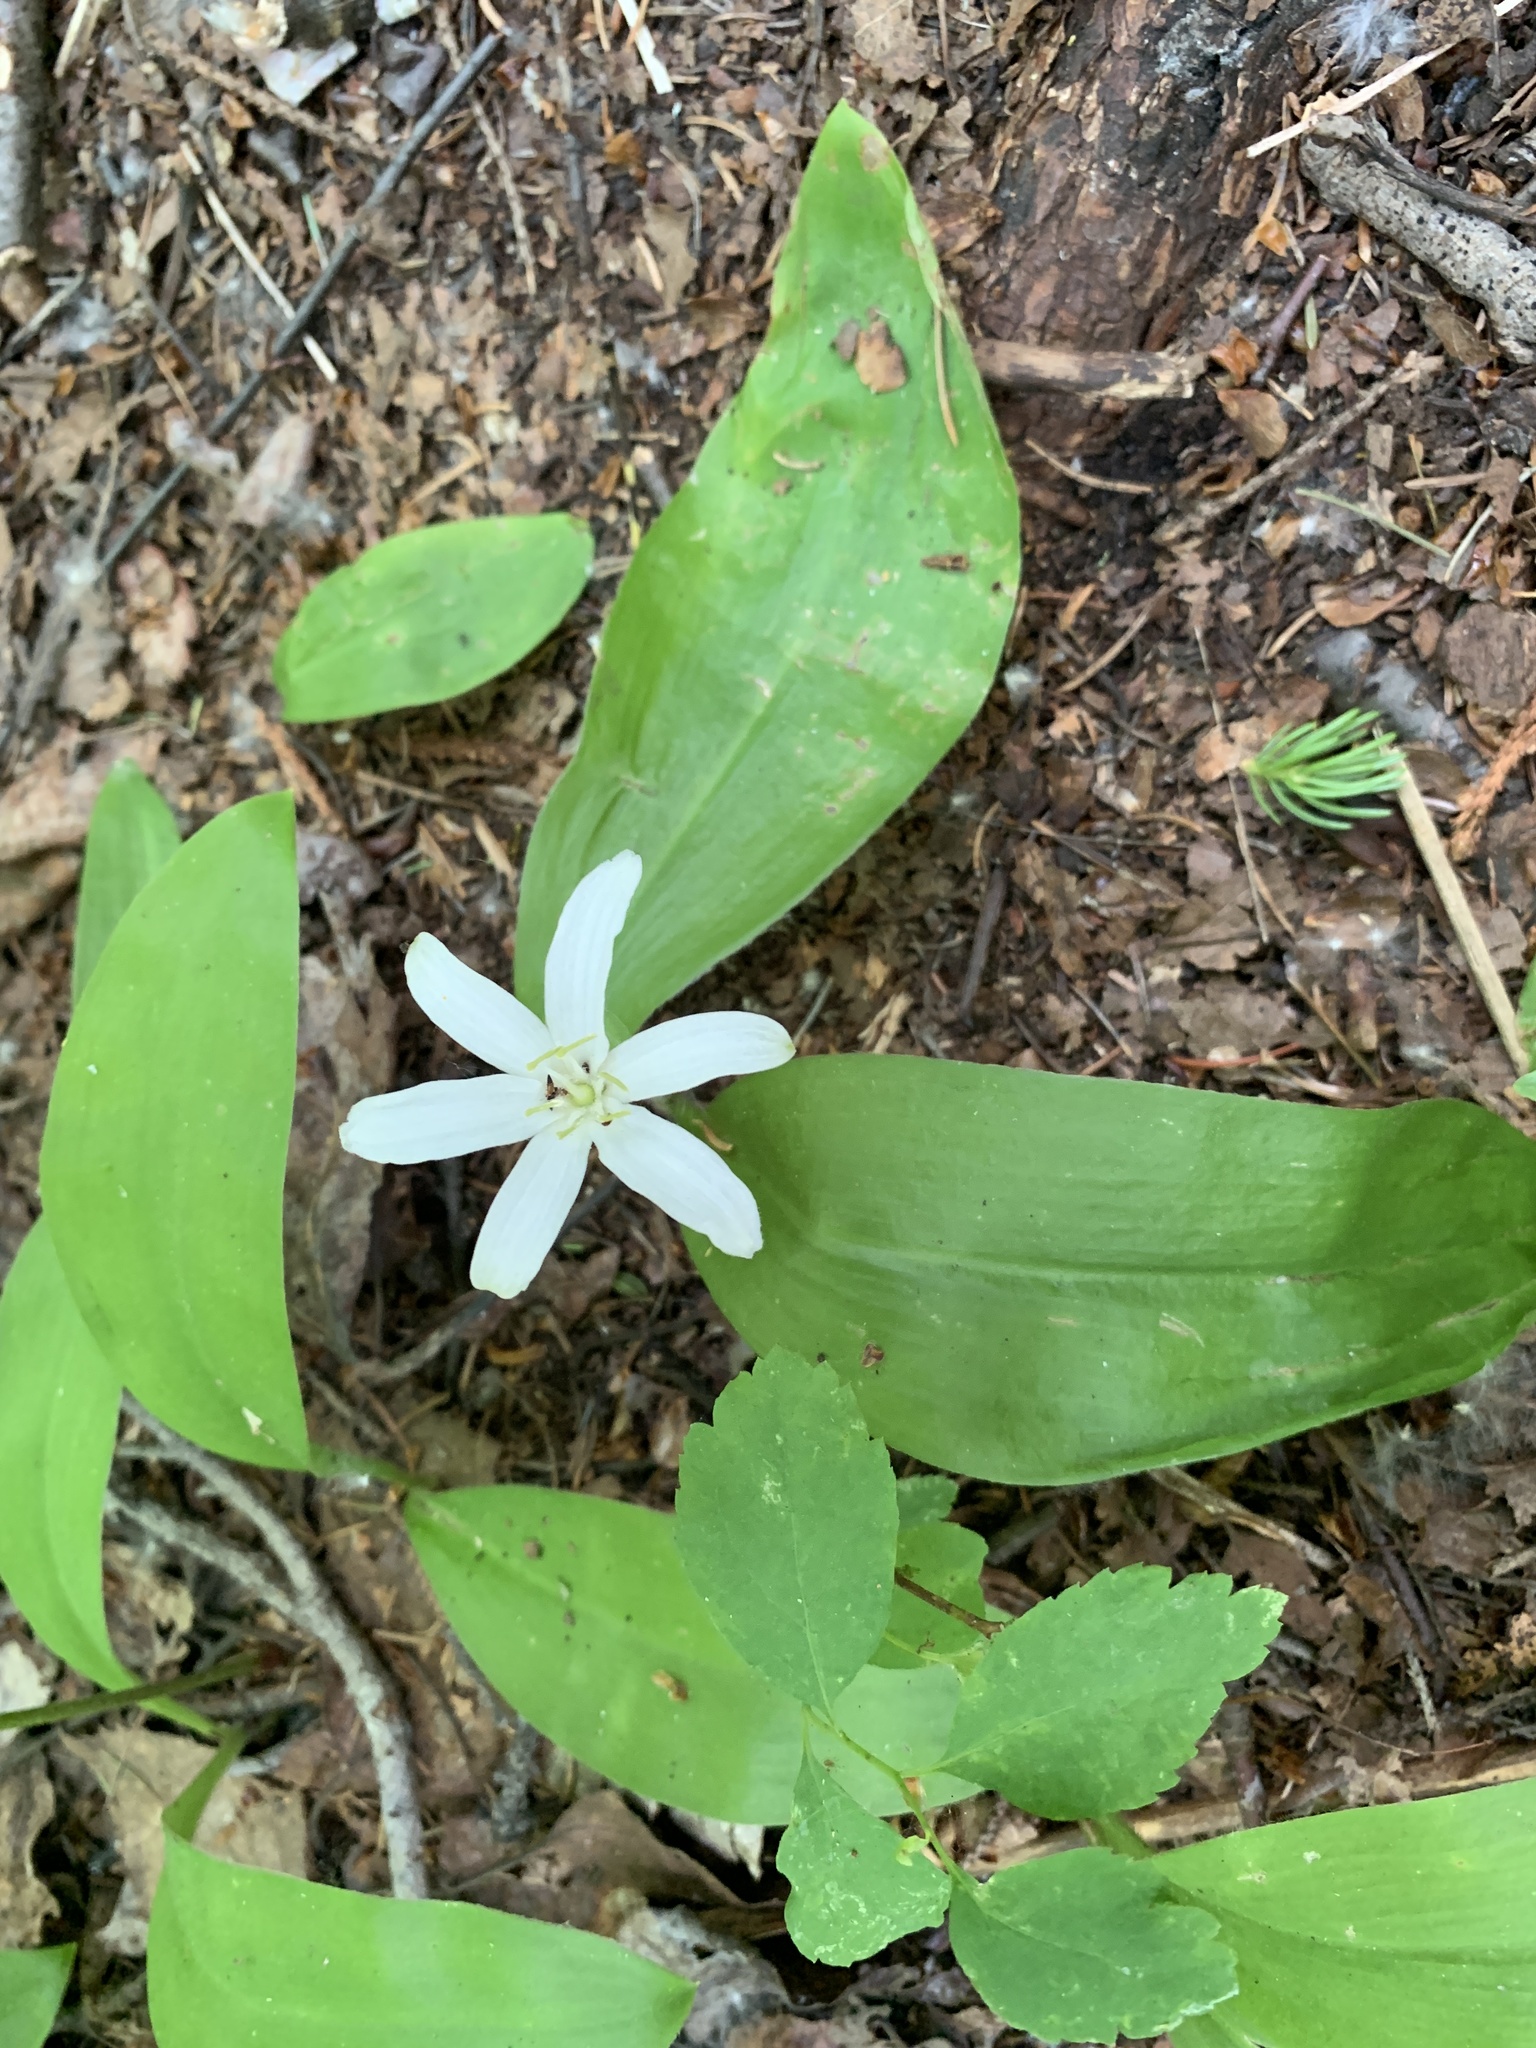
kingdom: Plantae
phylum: Tracheophyta
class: Liliopsida
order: Liliales
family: Liliaceae
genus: Clintonia
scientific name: Clintonia uniflora
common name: Queen's cup
